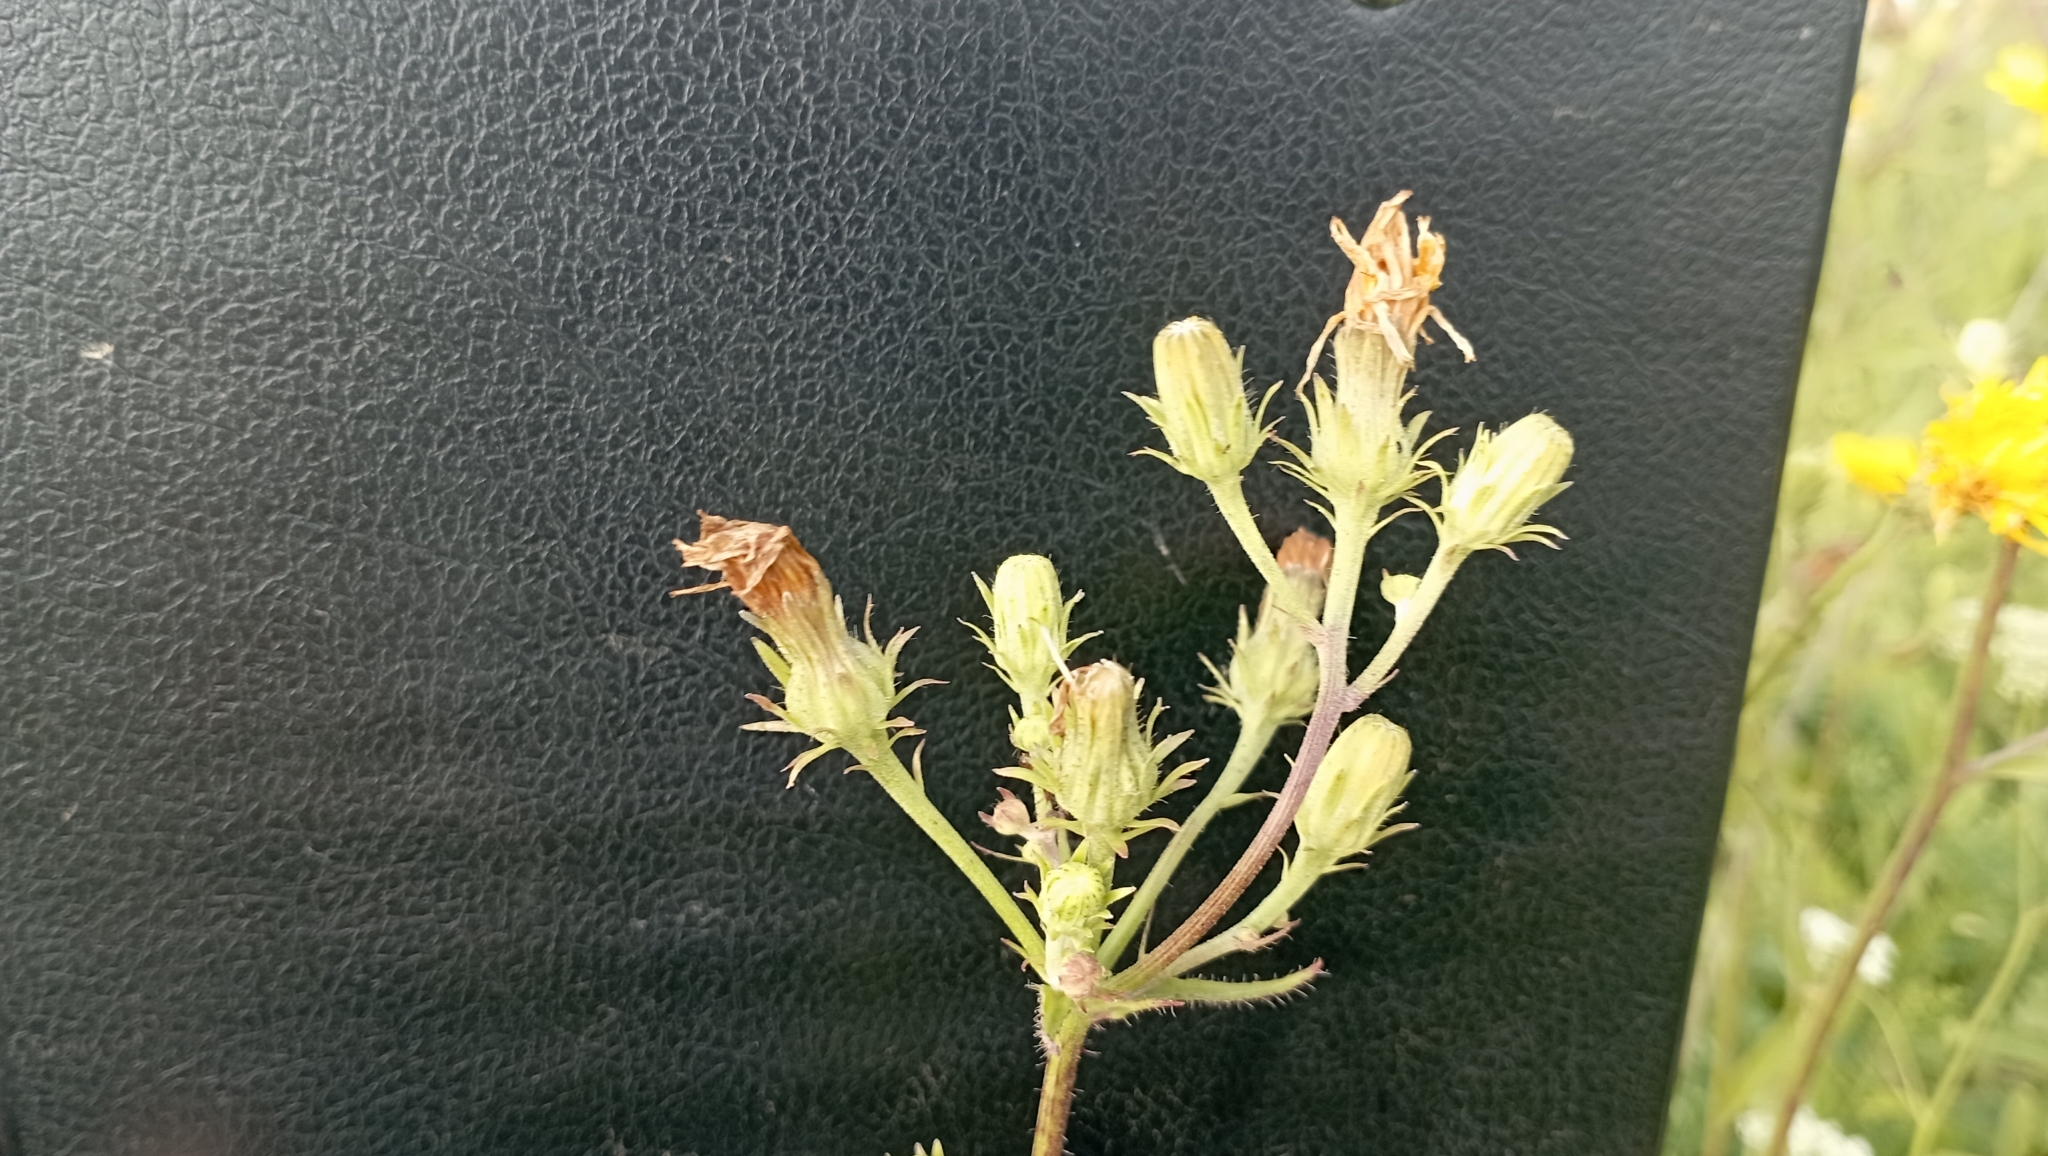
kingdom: Plantae
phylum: Tracheophyta
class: Magnoliopsida
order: Asterales
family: Asteraceae
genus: Picris
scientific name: Picris hieracioides
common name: Hawkweed oxtongue
